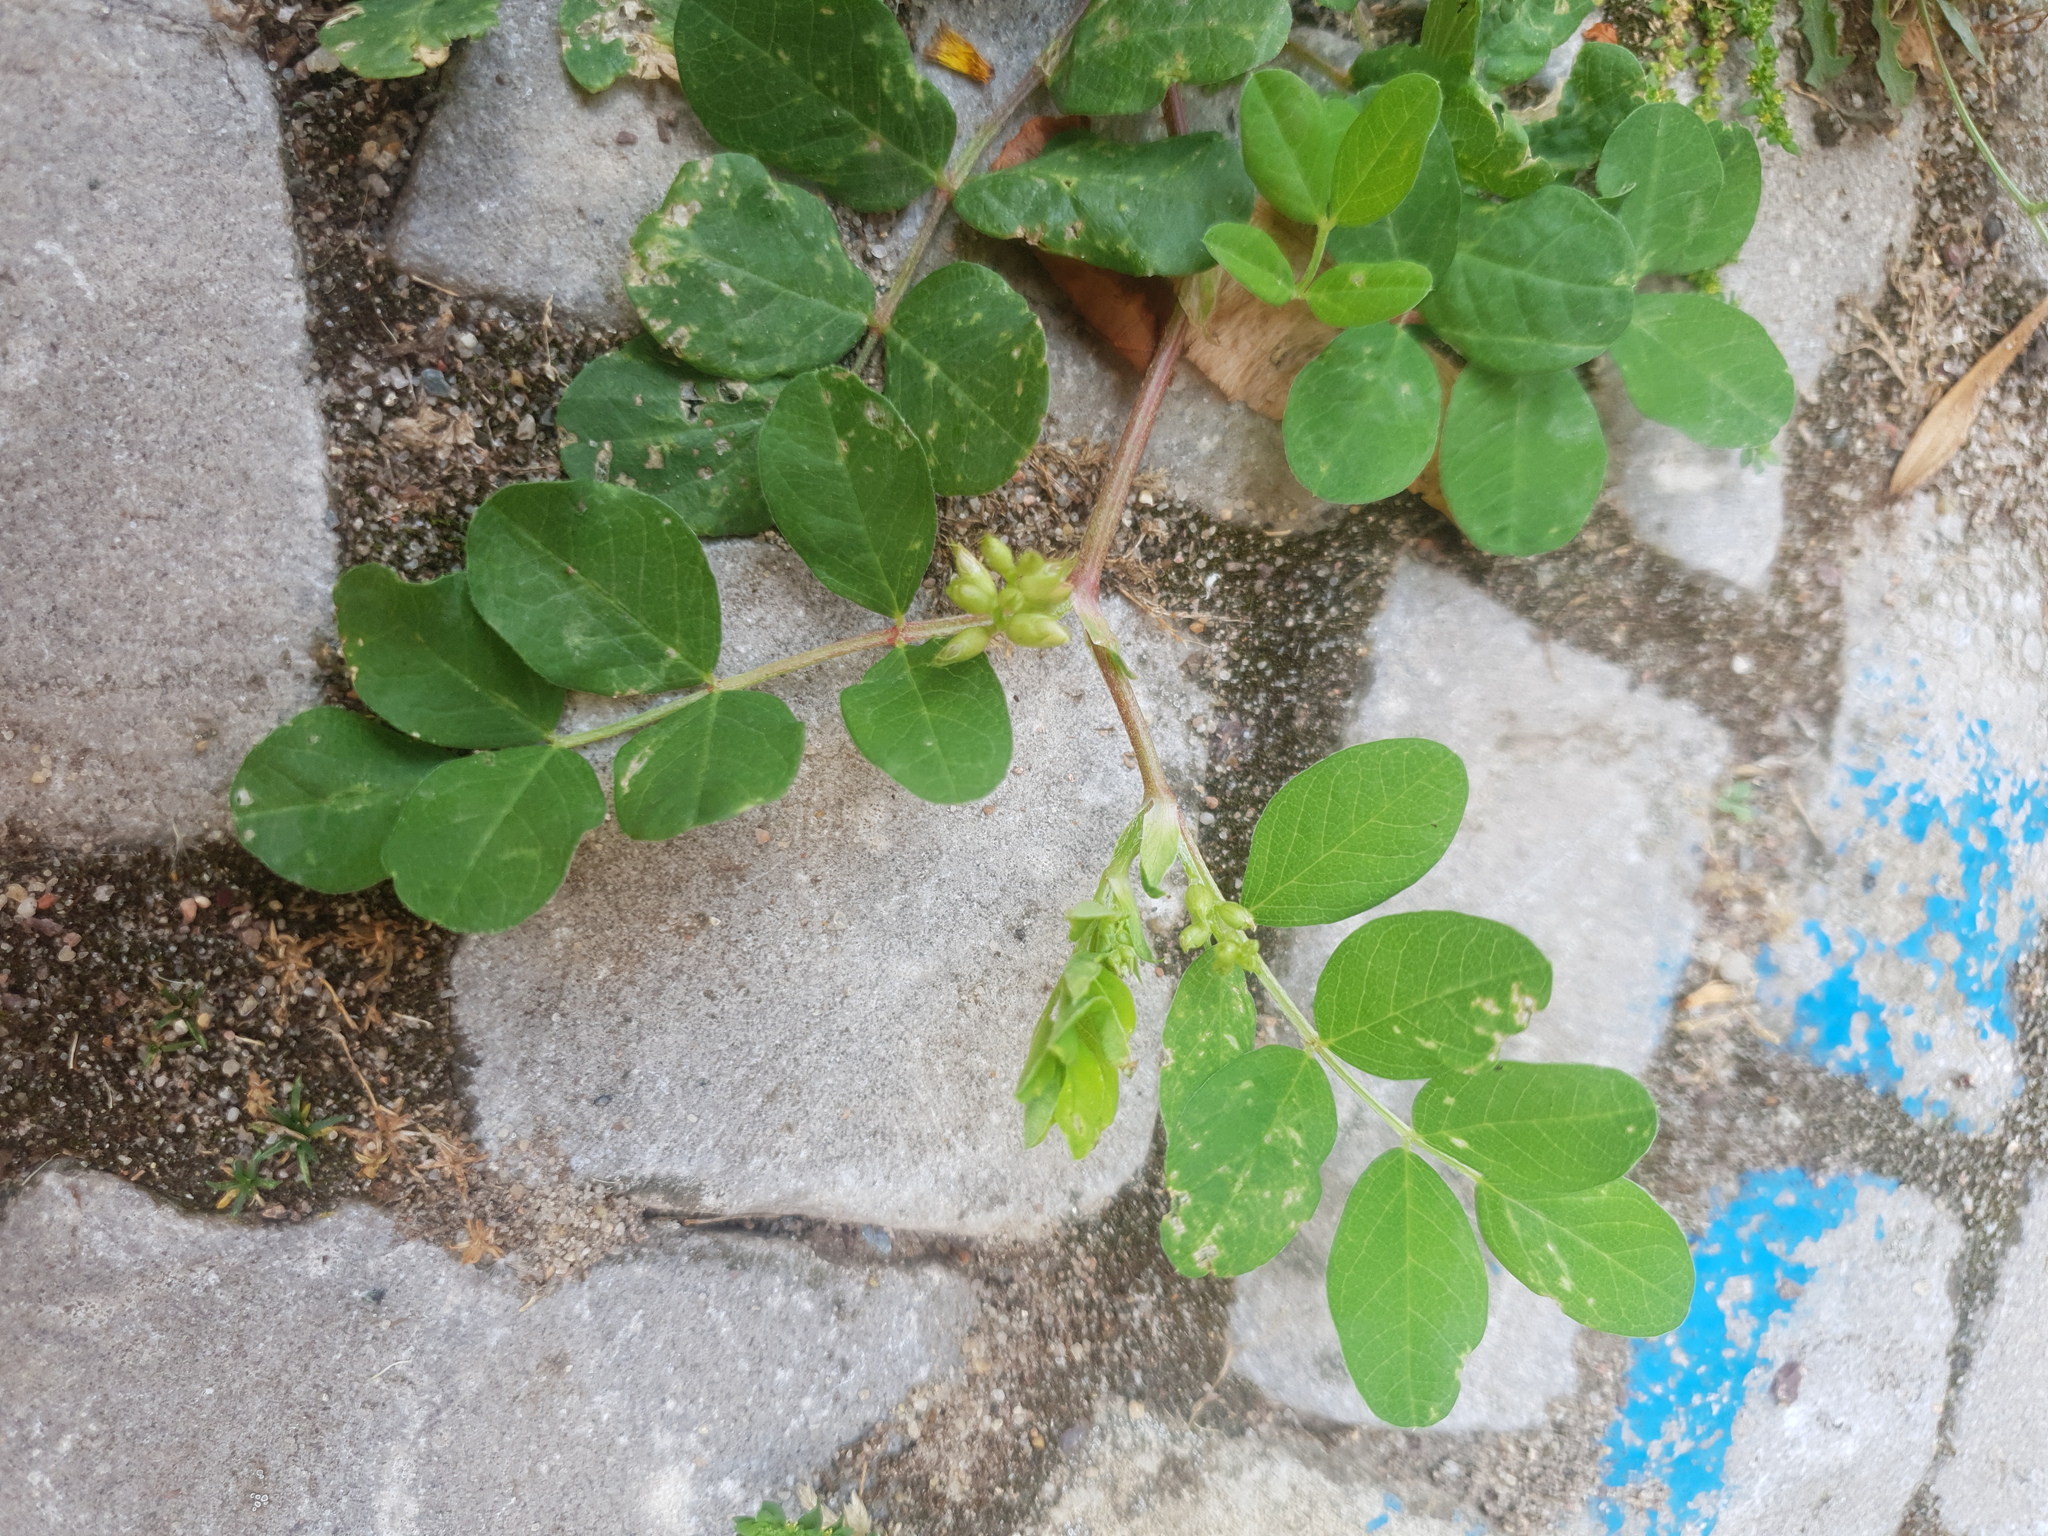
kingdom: Plantae
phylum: Tracheophyta
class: Magnoliopsida
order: Fabales
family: Fabaceae
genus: Astragalus
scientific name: Astragalus glycyphyllos
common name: Wild liquorice
